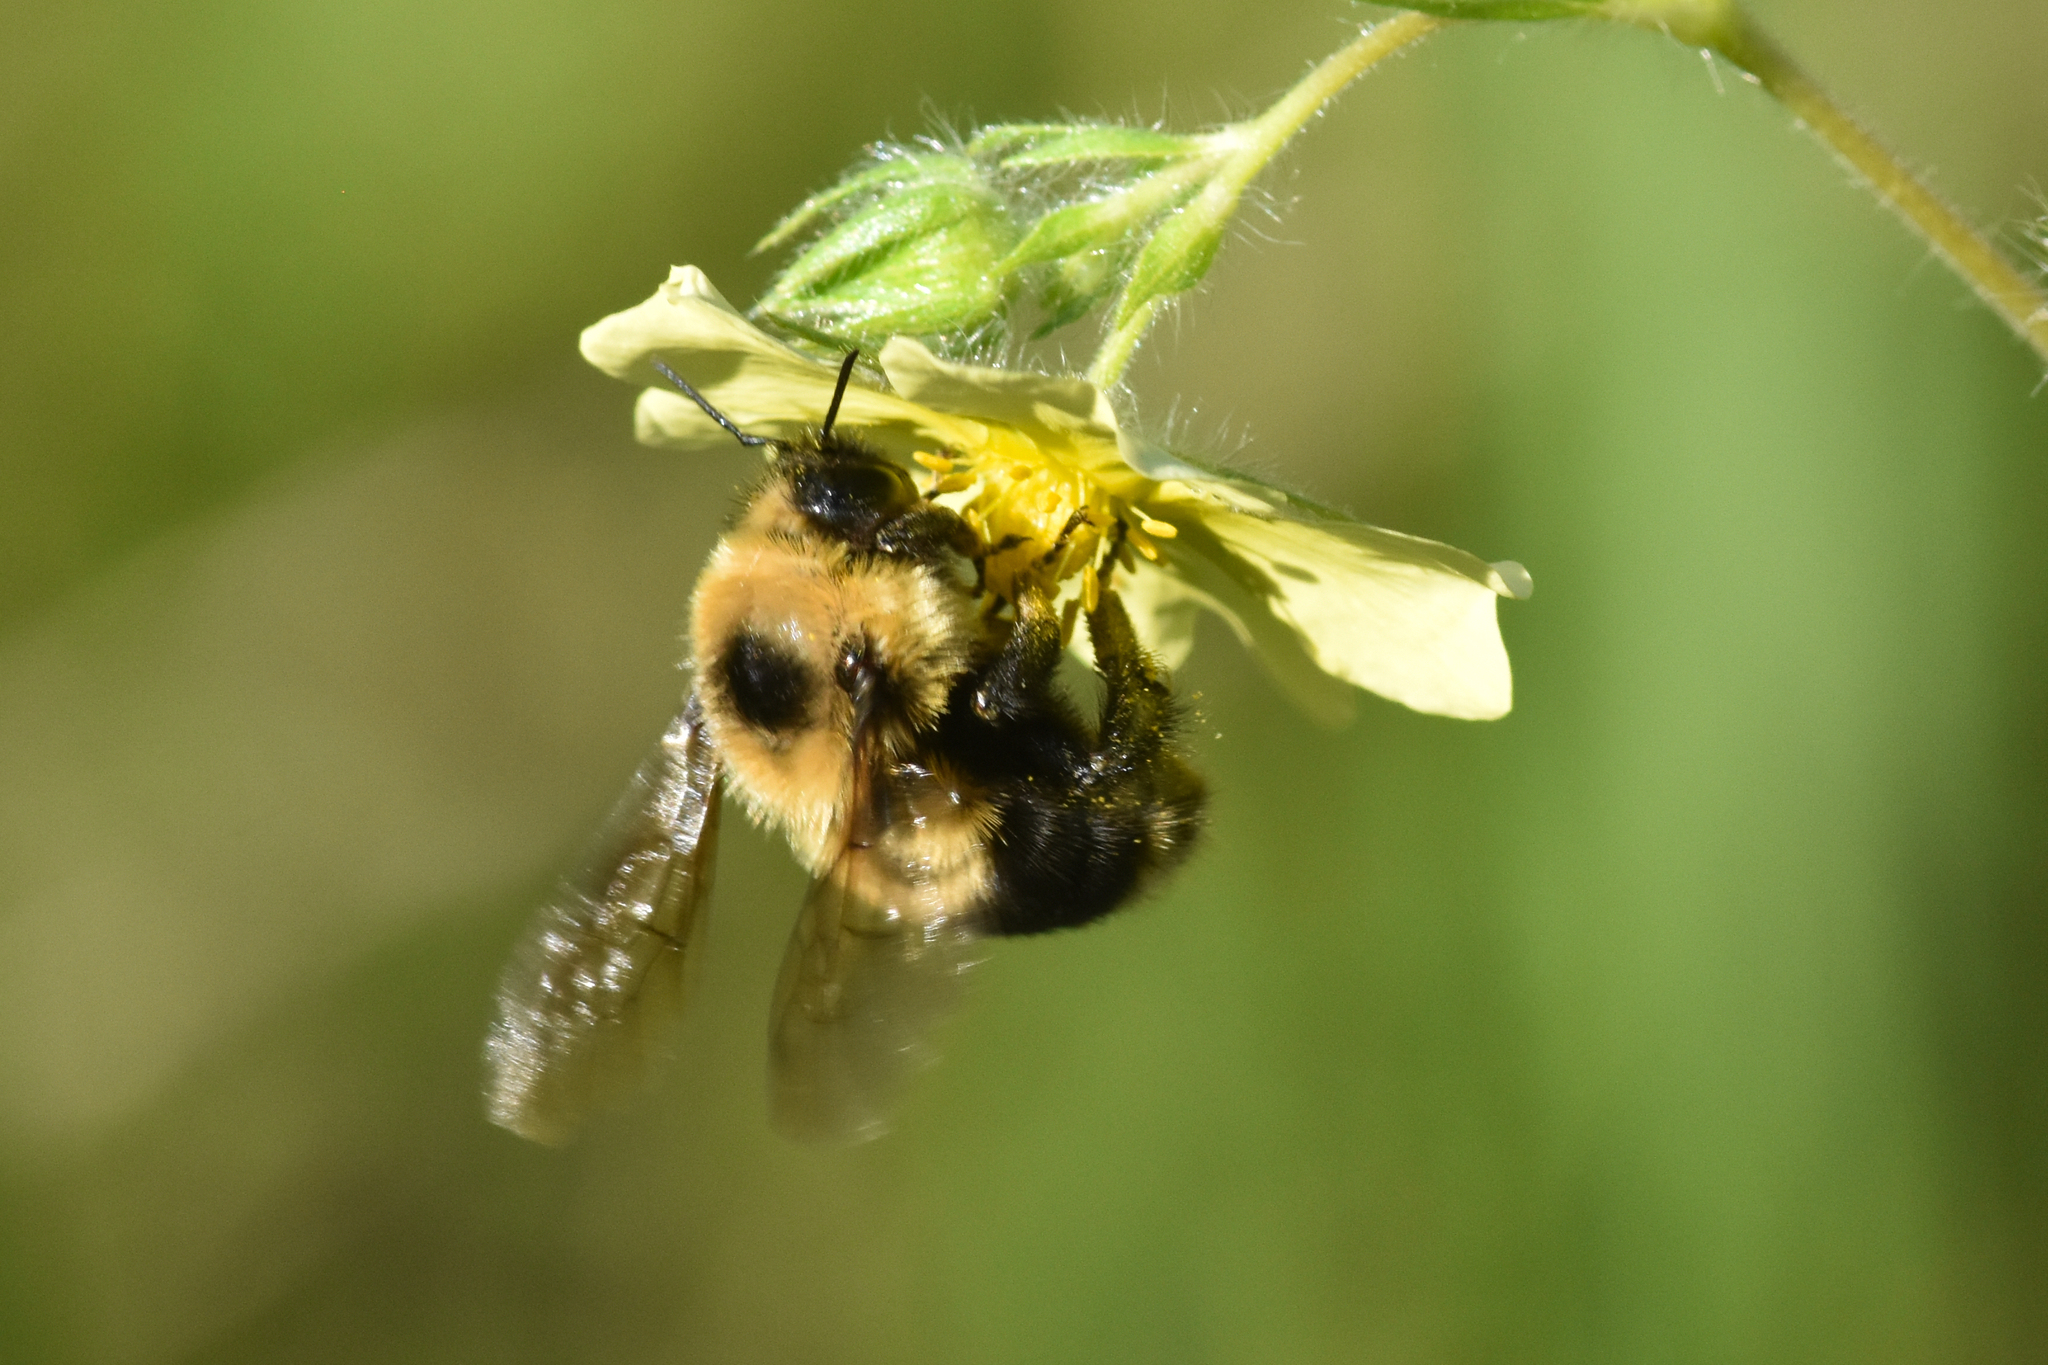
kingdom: Animalia
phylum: Arthropoda
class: Insecta
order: Hymenoptera
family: Apidae
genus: Bombus
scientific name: Bombus rufocinctus
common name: Red-belted bumble bee
